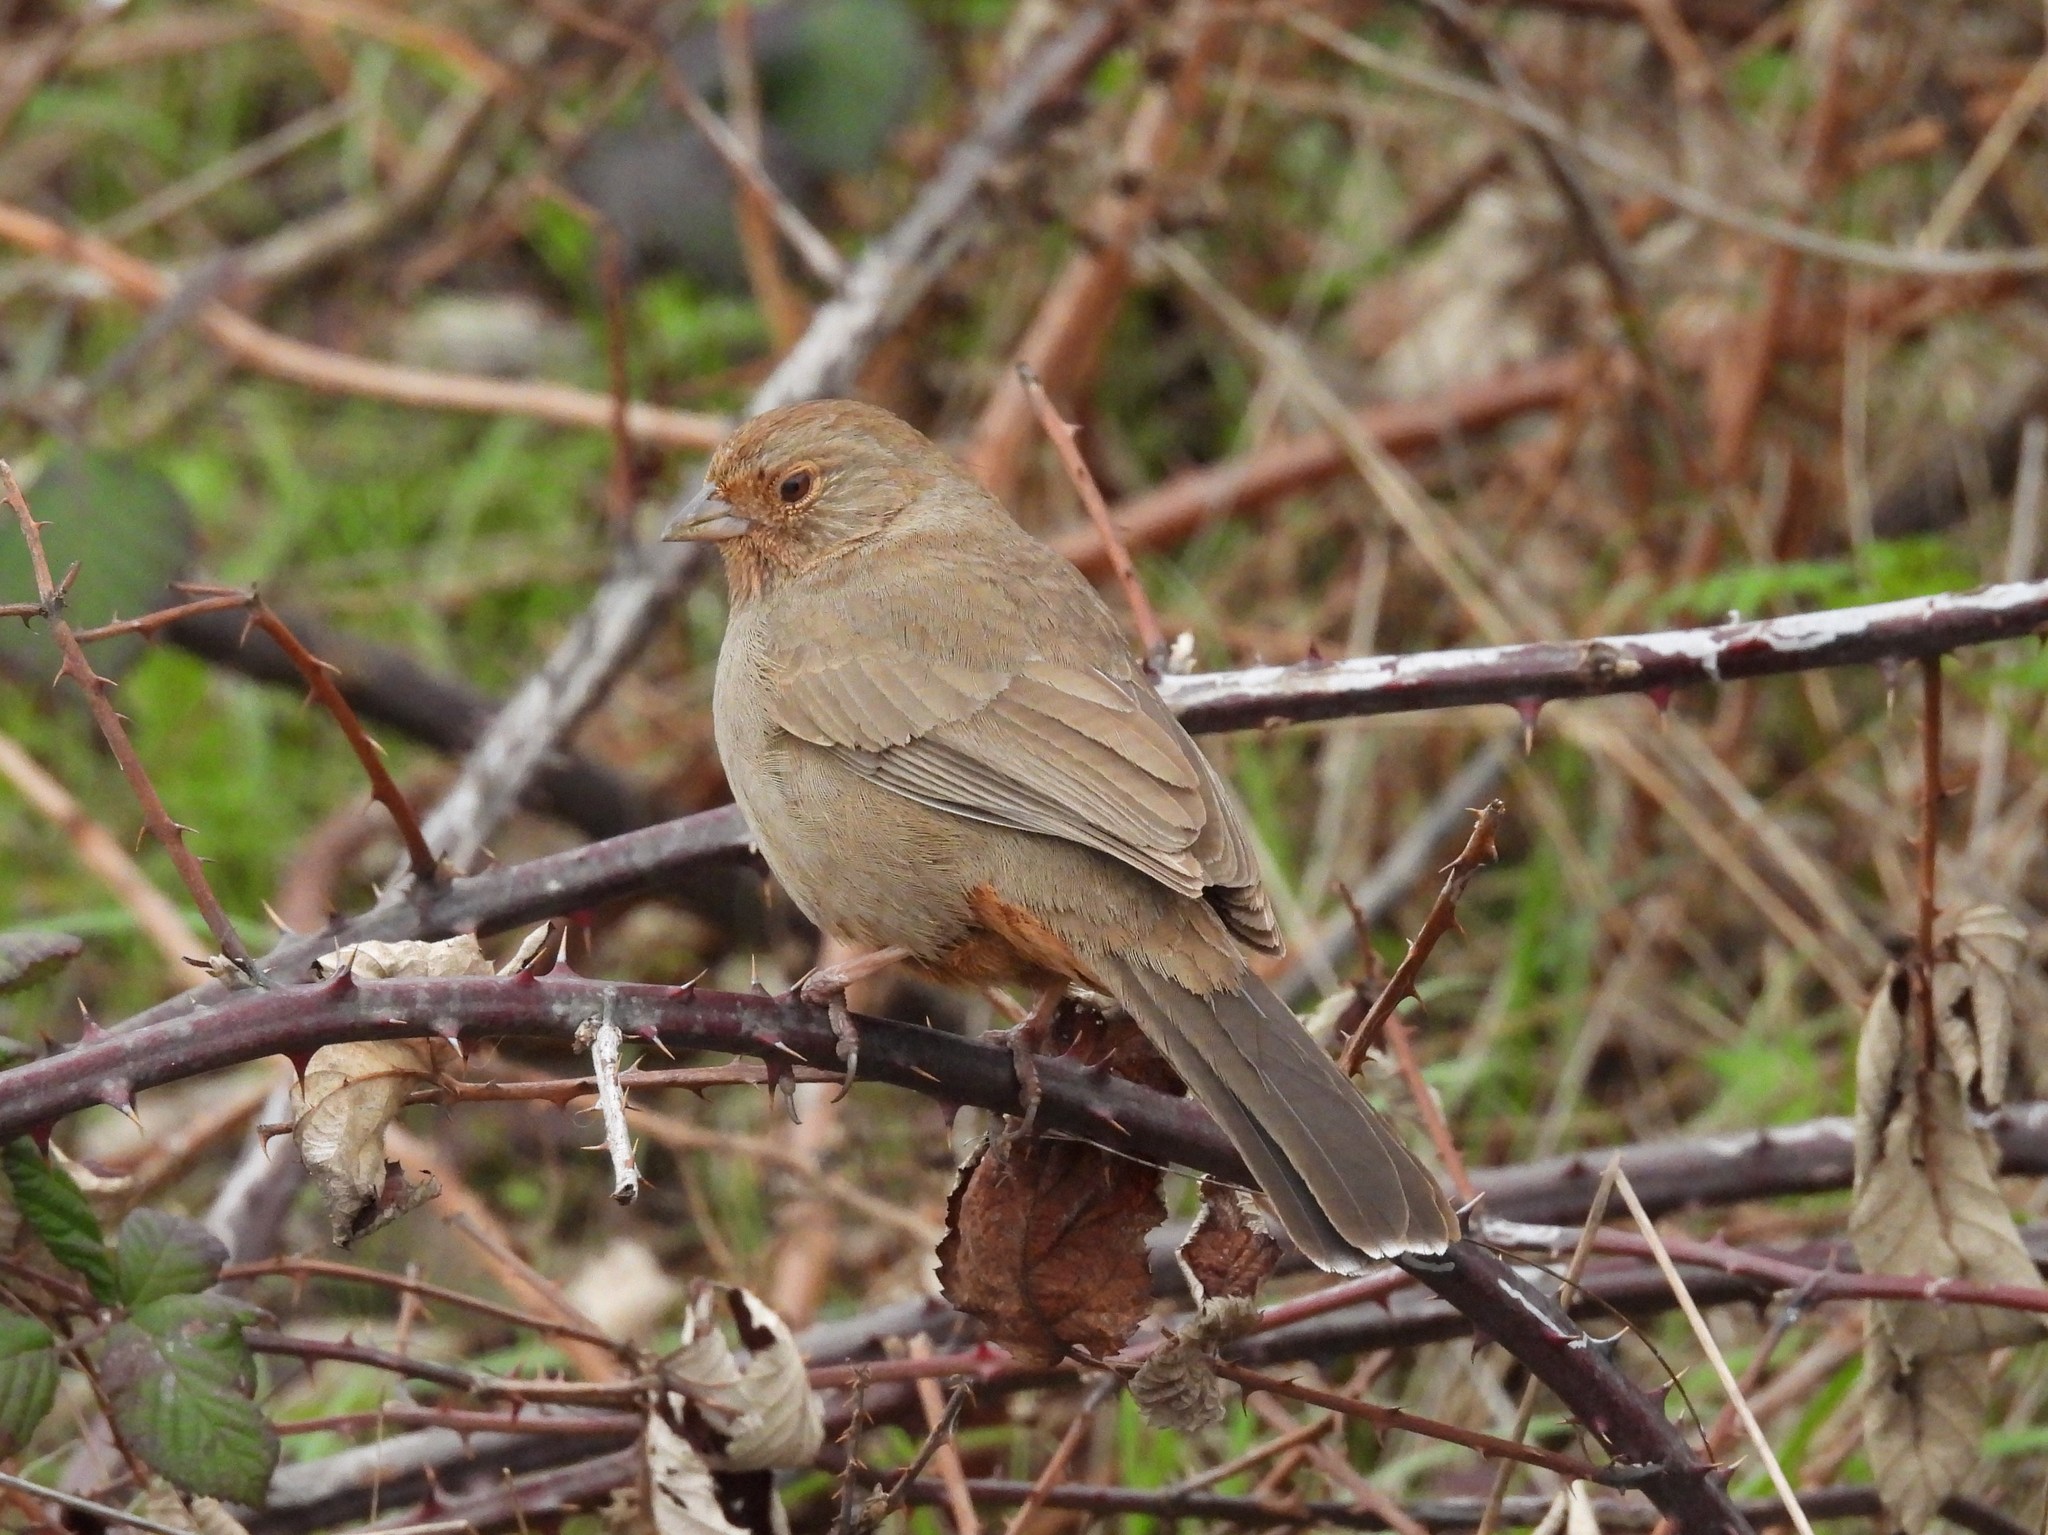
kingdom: Animalia
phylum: Chordata
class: Aves
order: Passeriformes
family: Passerellidae
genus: Melozone
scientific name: Melozone crissalis
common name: California towhee
